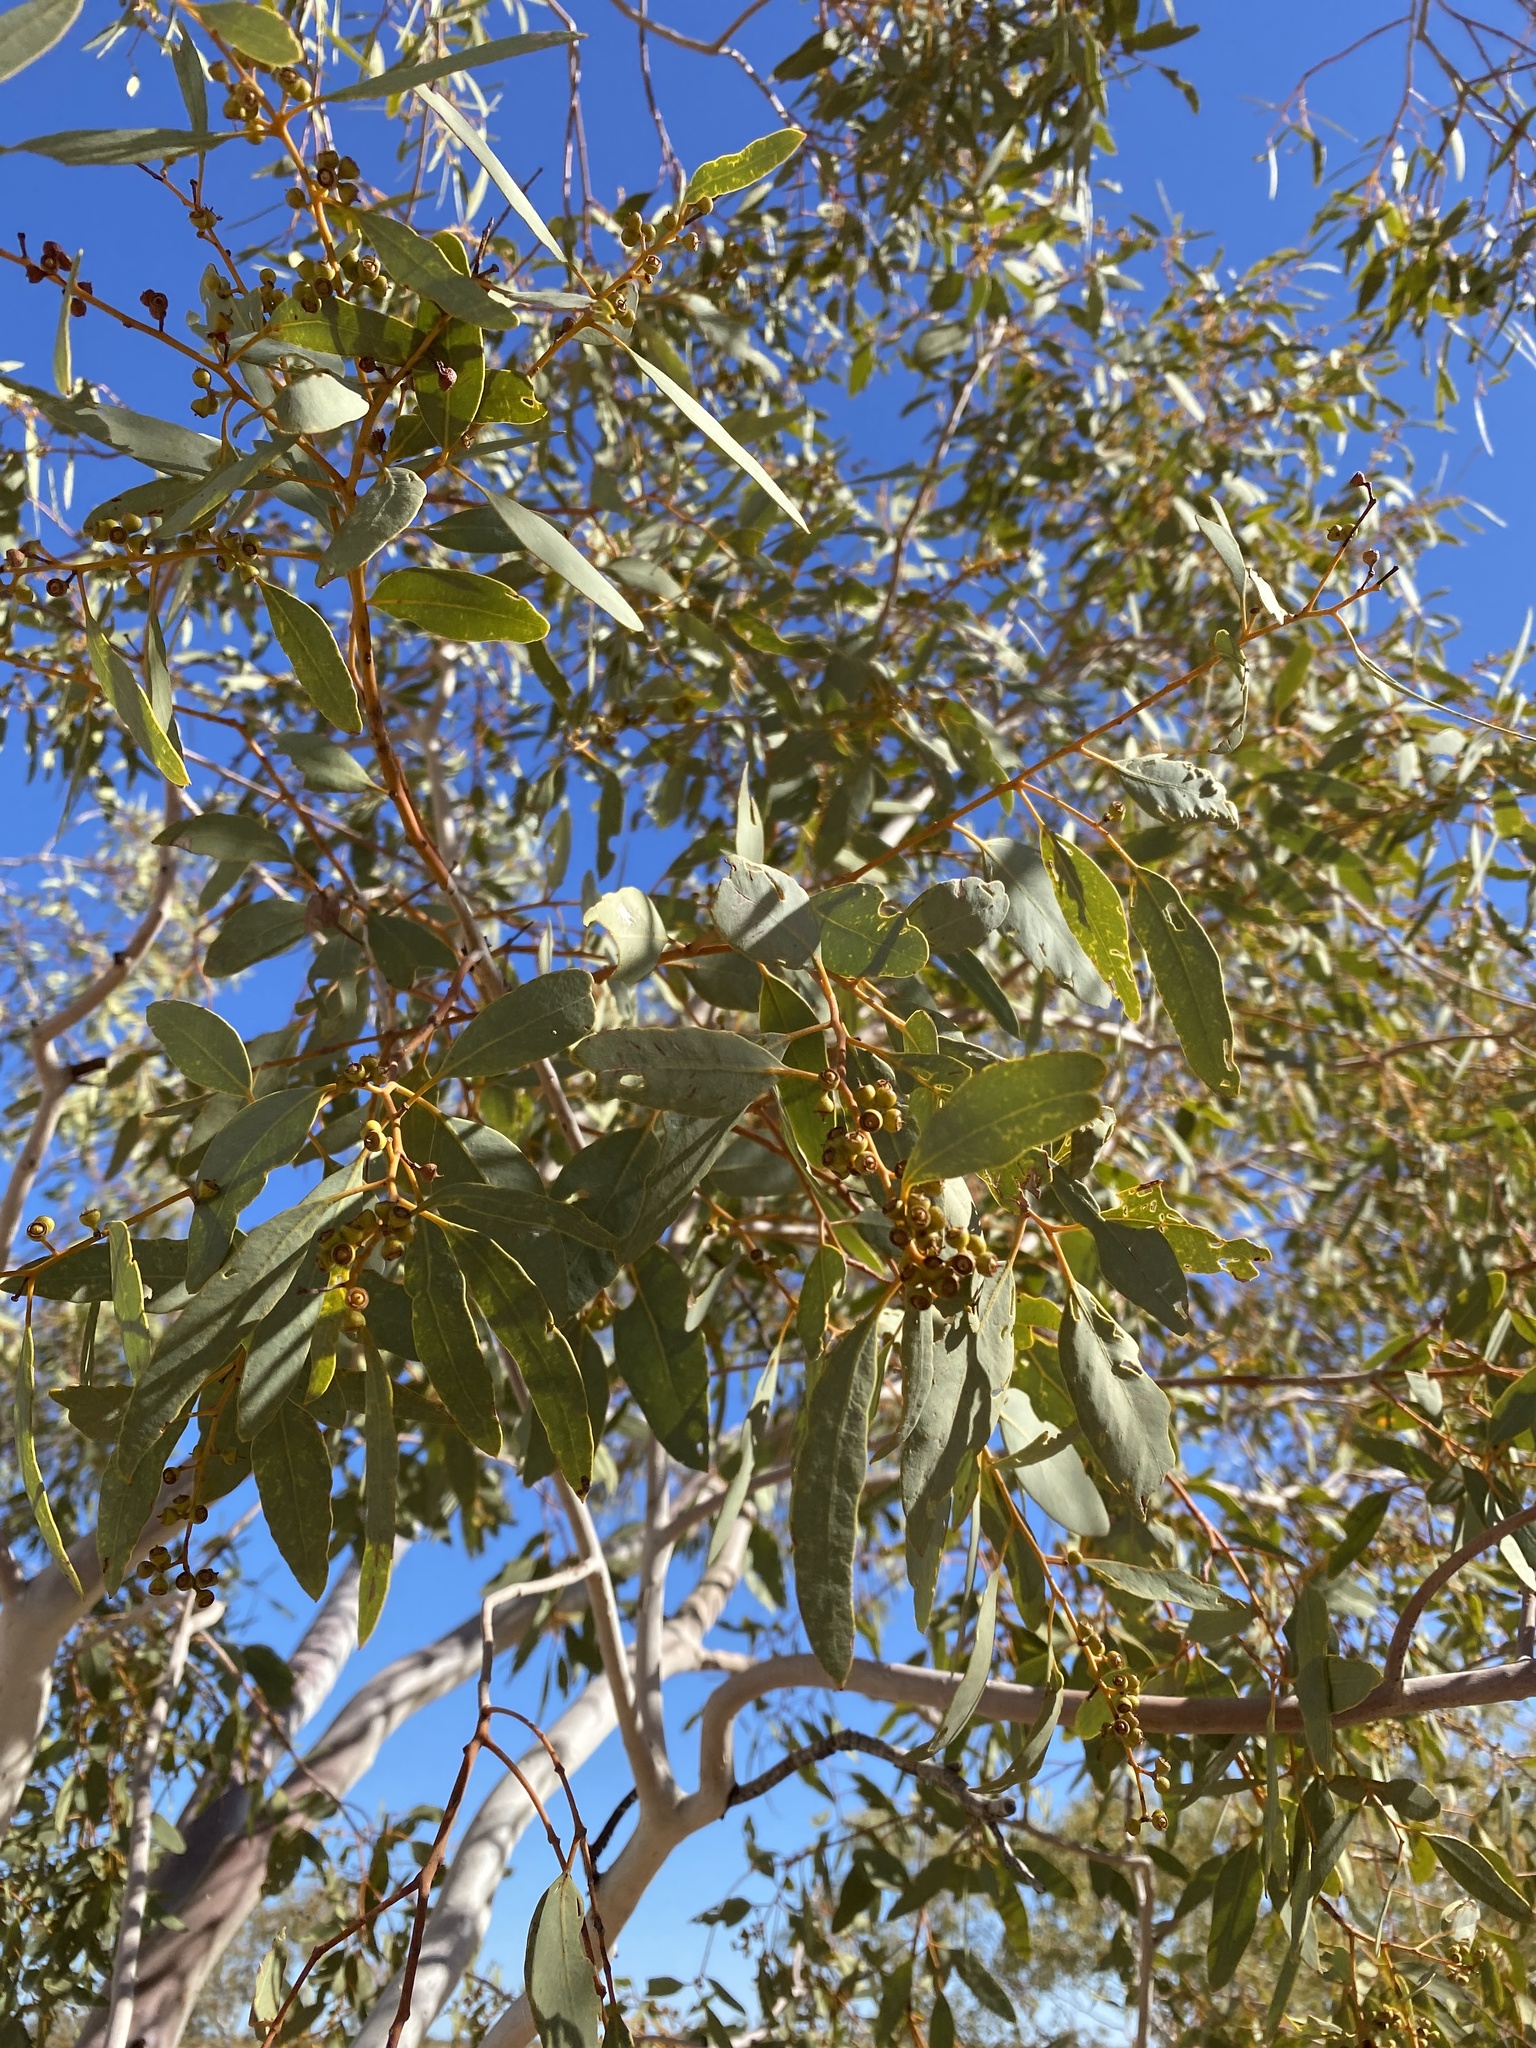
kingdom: Plantae
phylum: Tracheophyta
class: Magnoliopsida
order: Myrtales
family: Myrtaceae
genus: Eucalyptus
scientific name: Eucalyptus leucophloia
